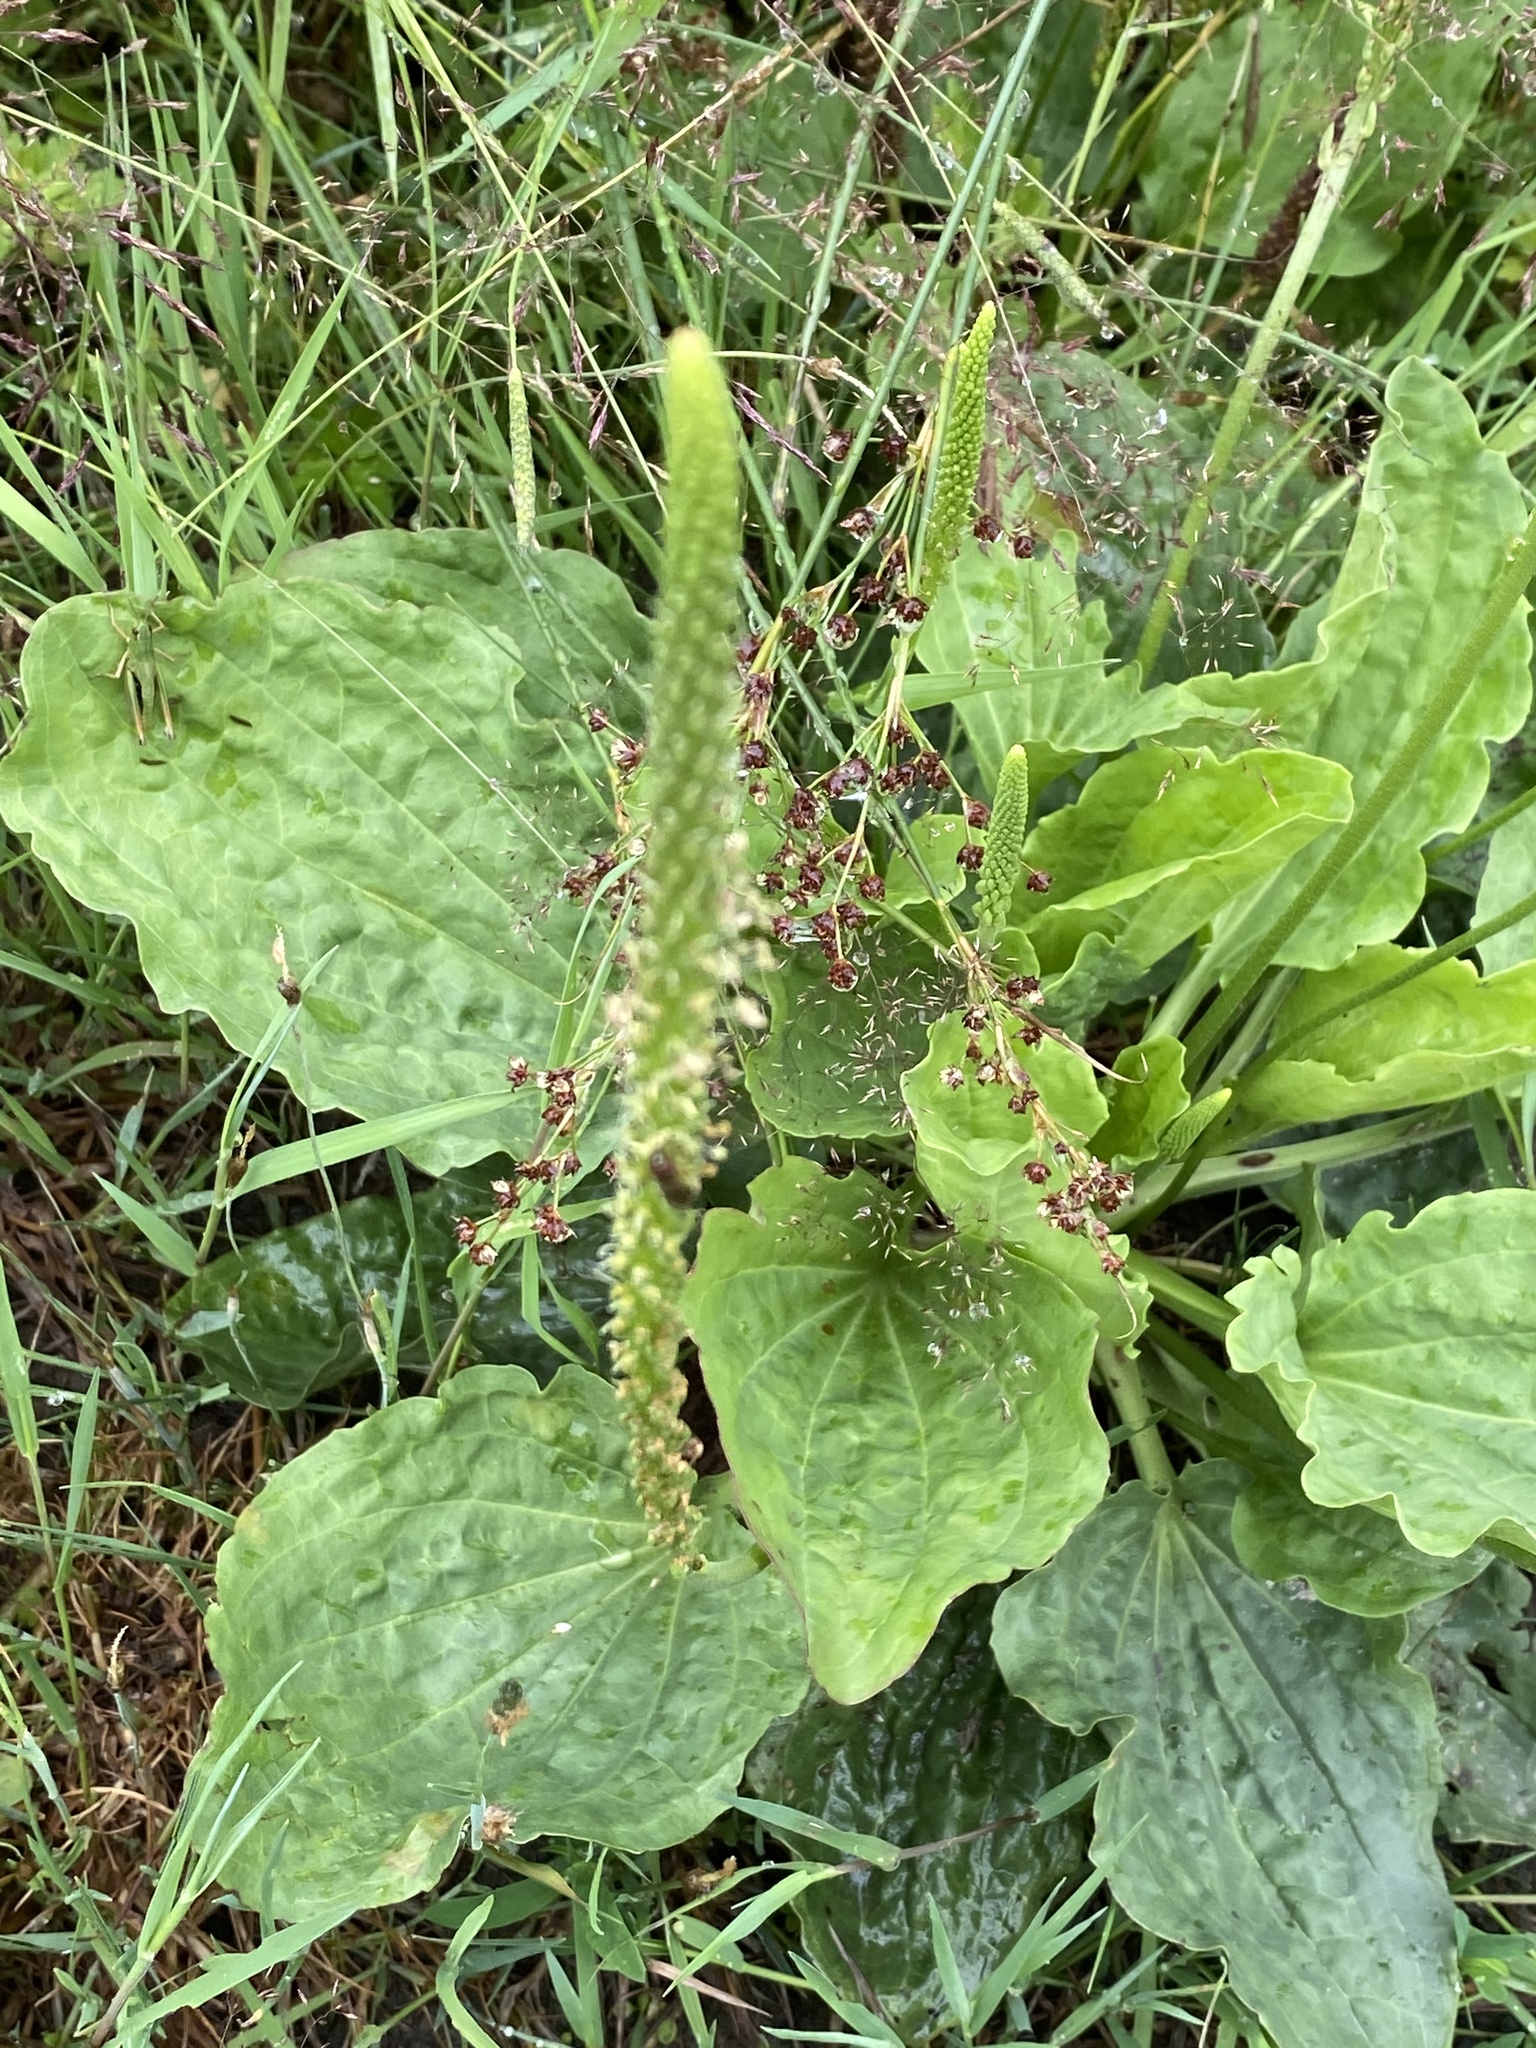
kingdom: Plantae
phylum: Tracheophyta
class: Magnoliopsida
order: Lamiales
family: Plantaginaceae
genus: Plantago
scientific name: Plantago major
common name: Common plantain
